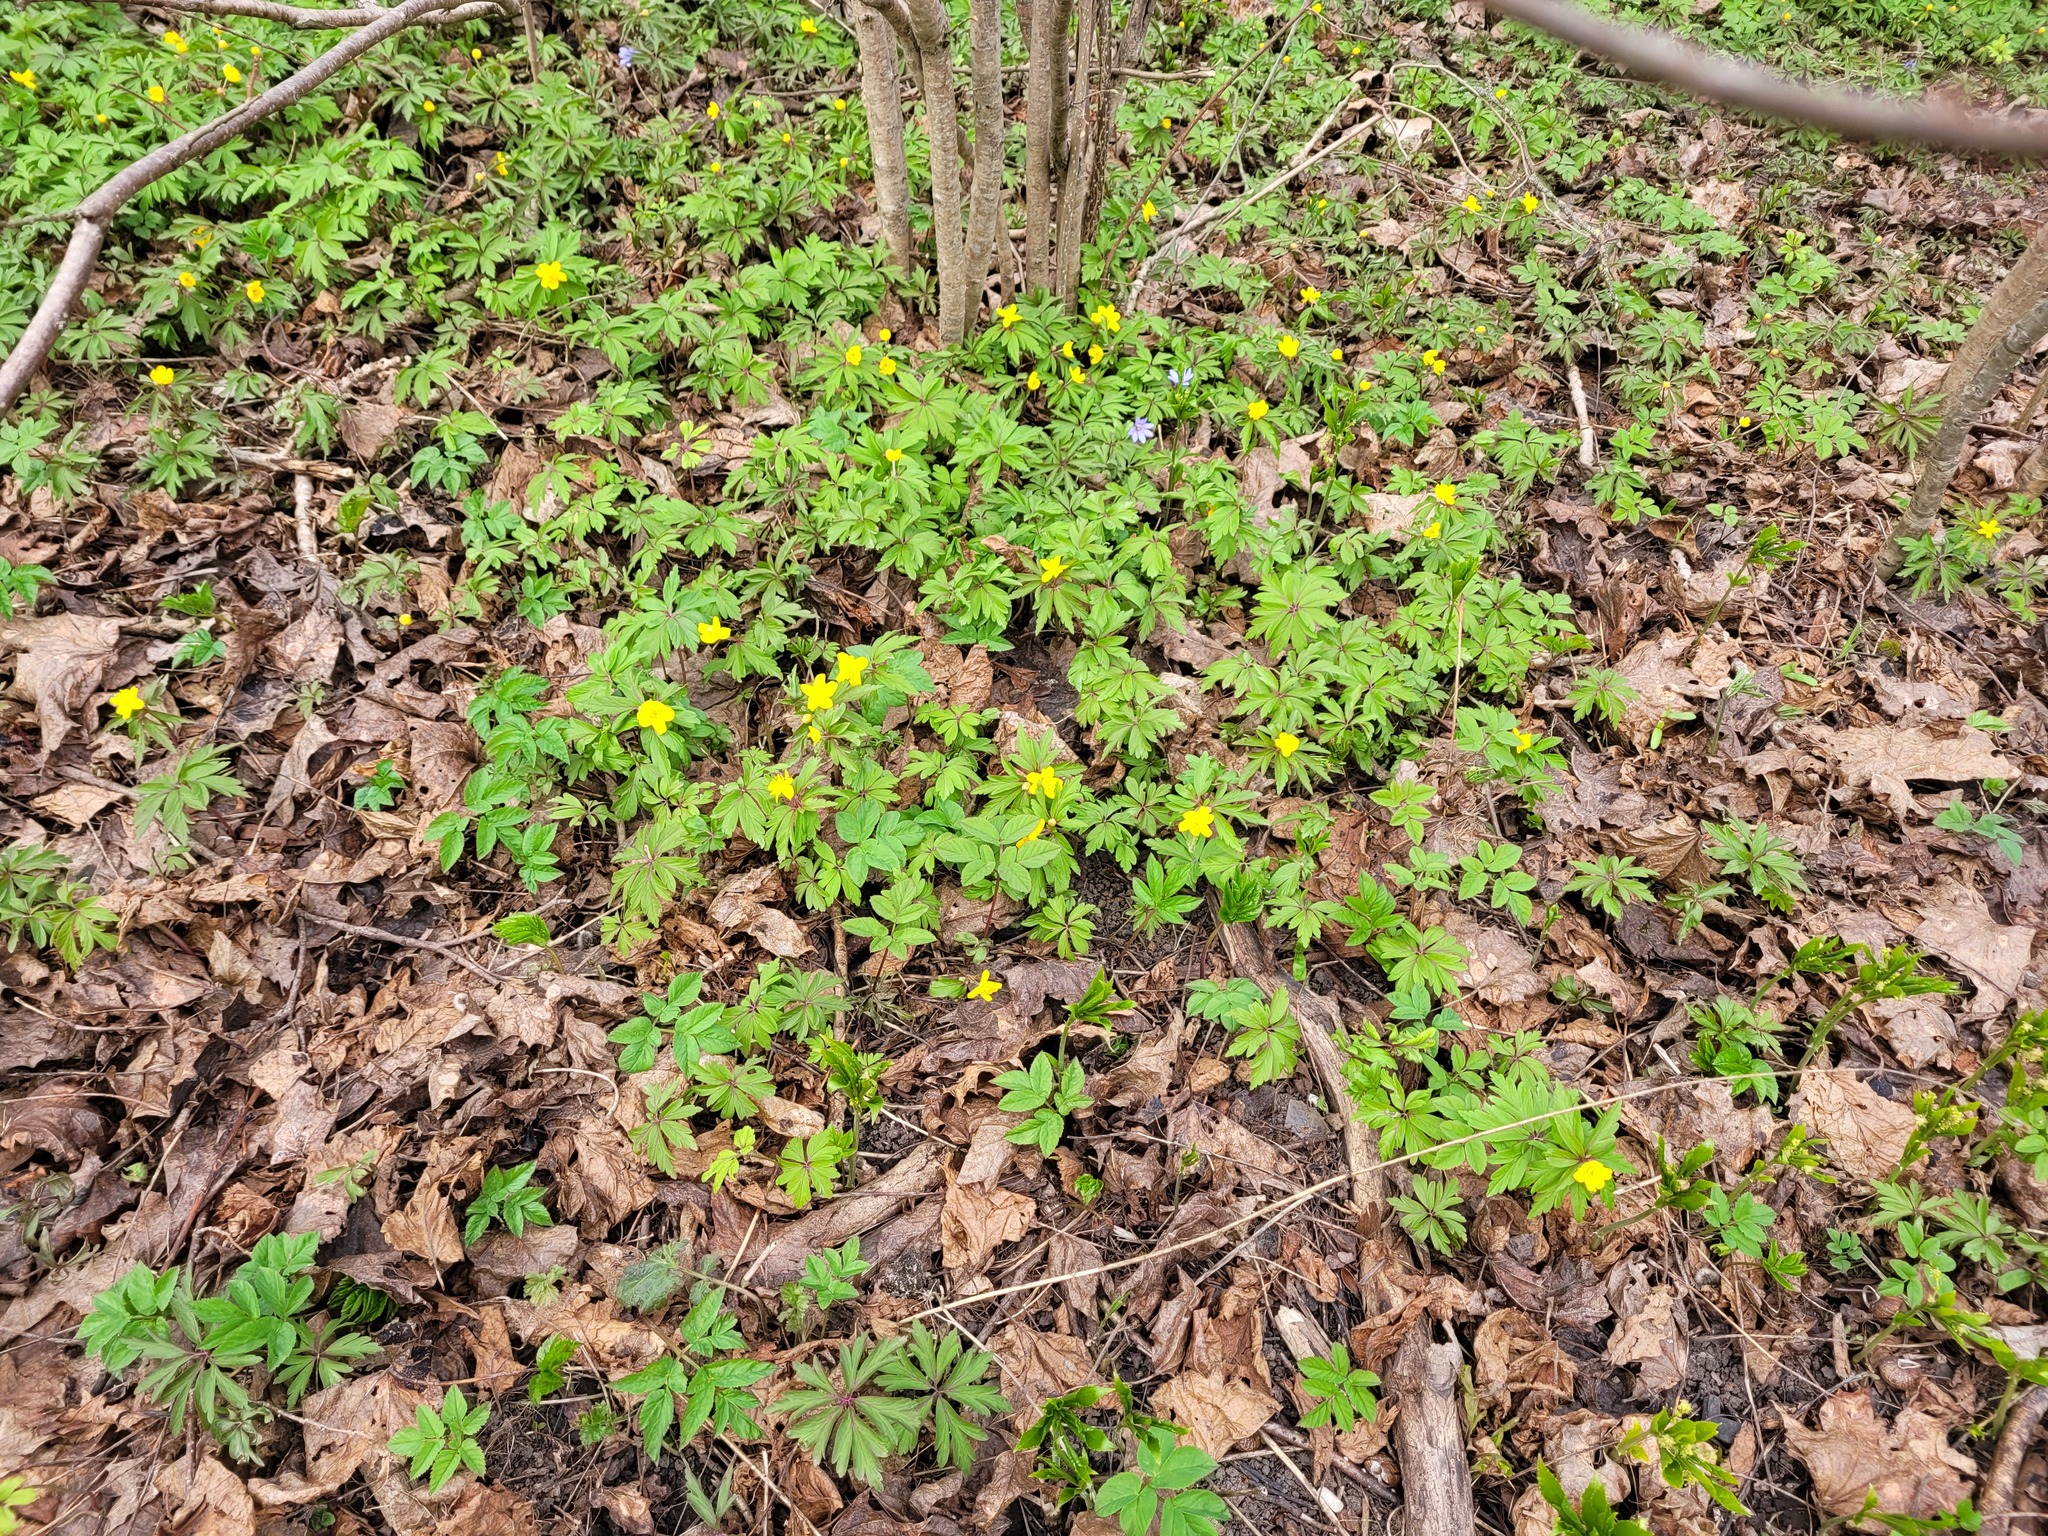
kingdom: Plantae
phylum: Tracheophyta
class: Magnoliopsida
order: Ranunculales
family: Ranunculaceae
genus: Anemone
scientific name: Anemone ranunculoides
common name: Yellow anemone
